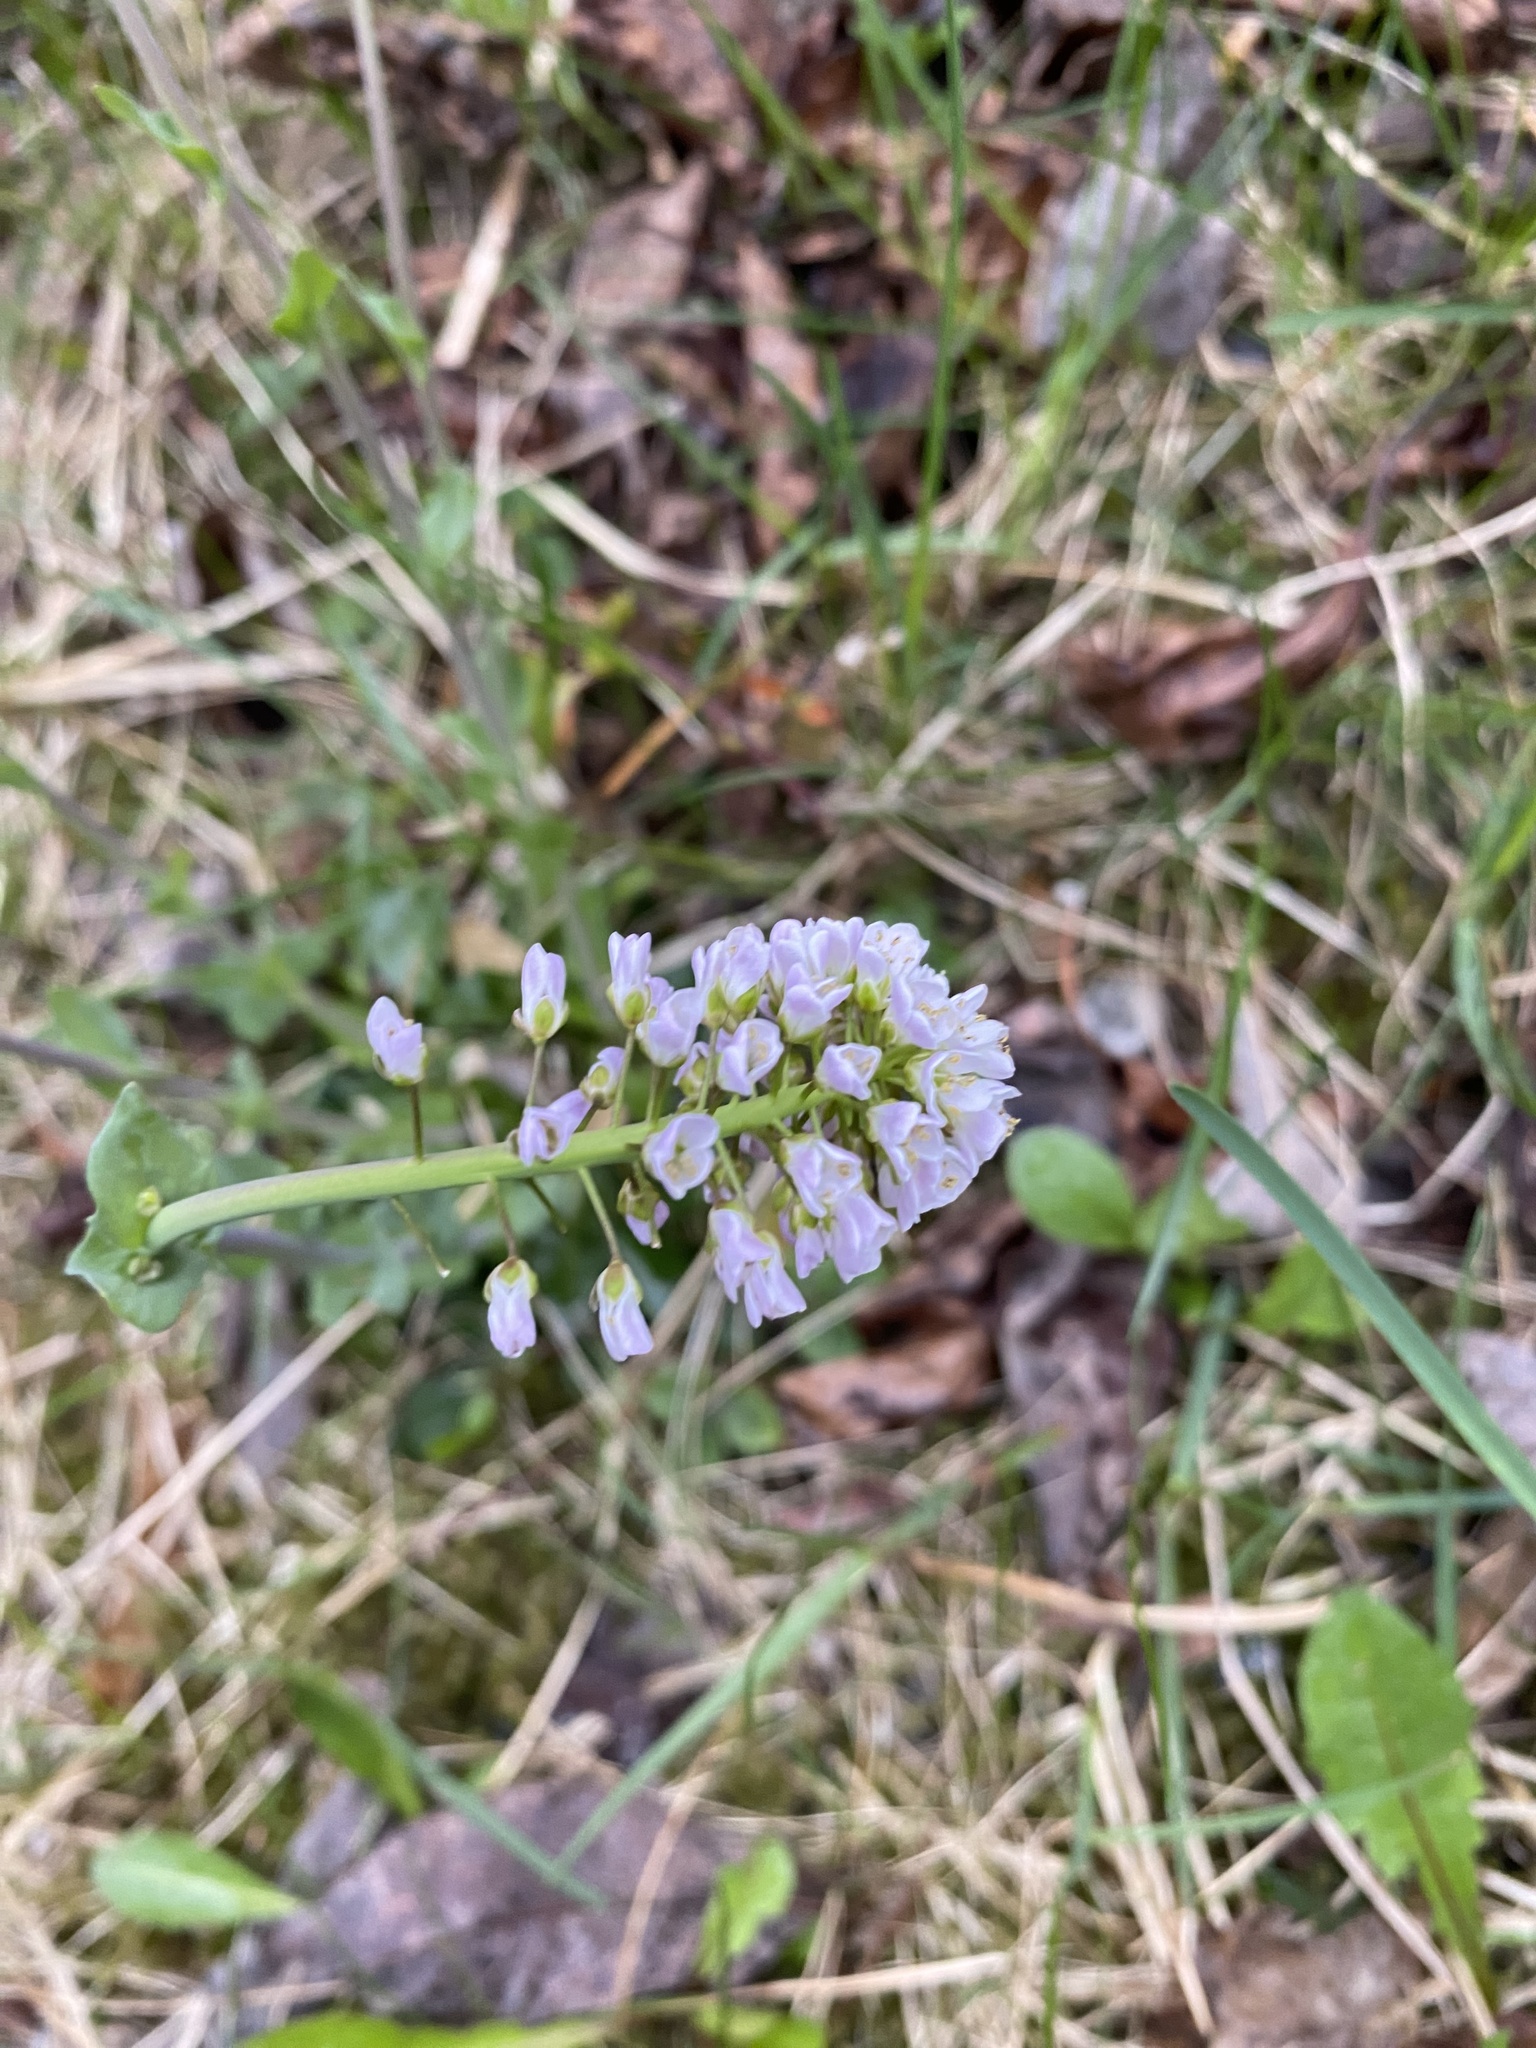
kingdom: Plantae
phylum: Tracheophyta
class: Magnoliopsida
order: Brassicales
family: Brassicaceae
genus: Noccaea
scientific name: Noccaea caerulescens
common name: Alpine pennycress
